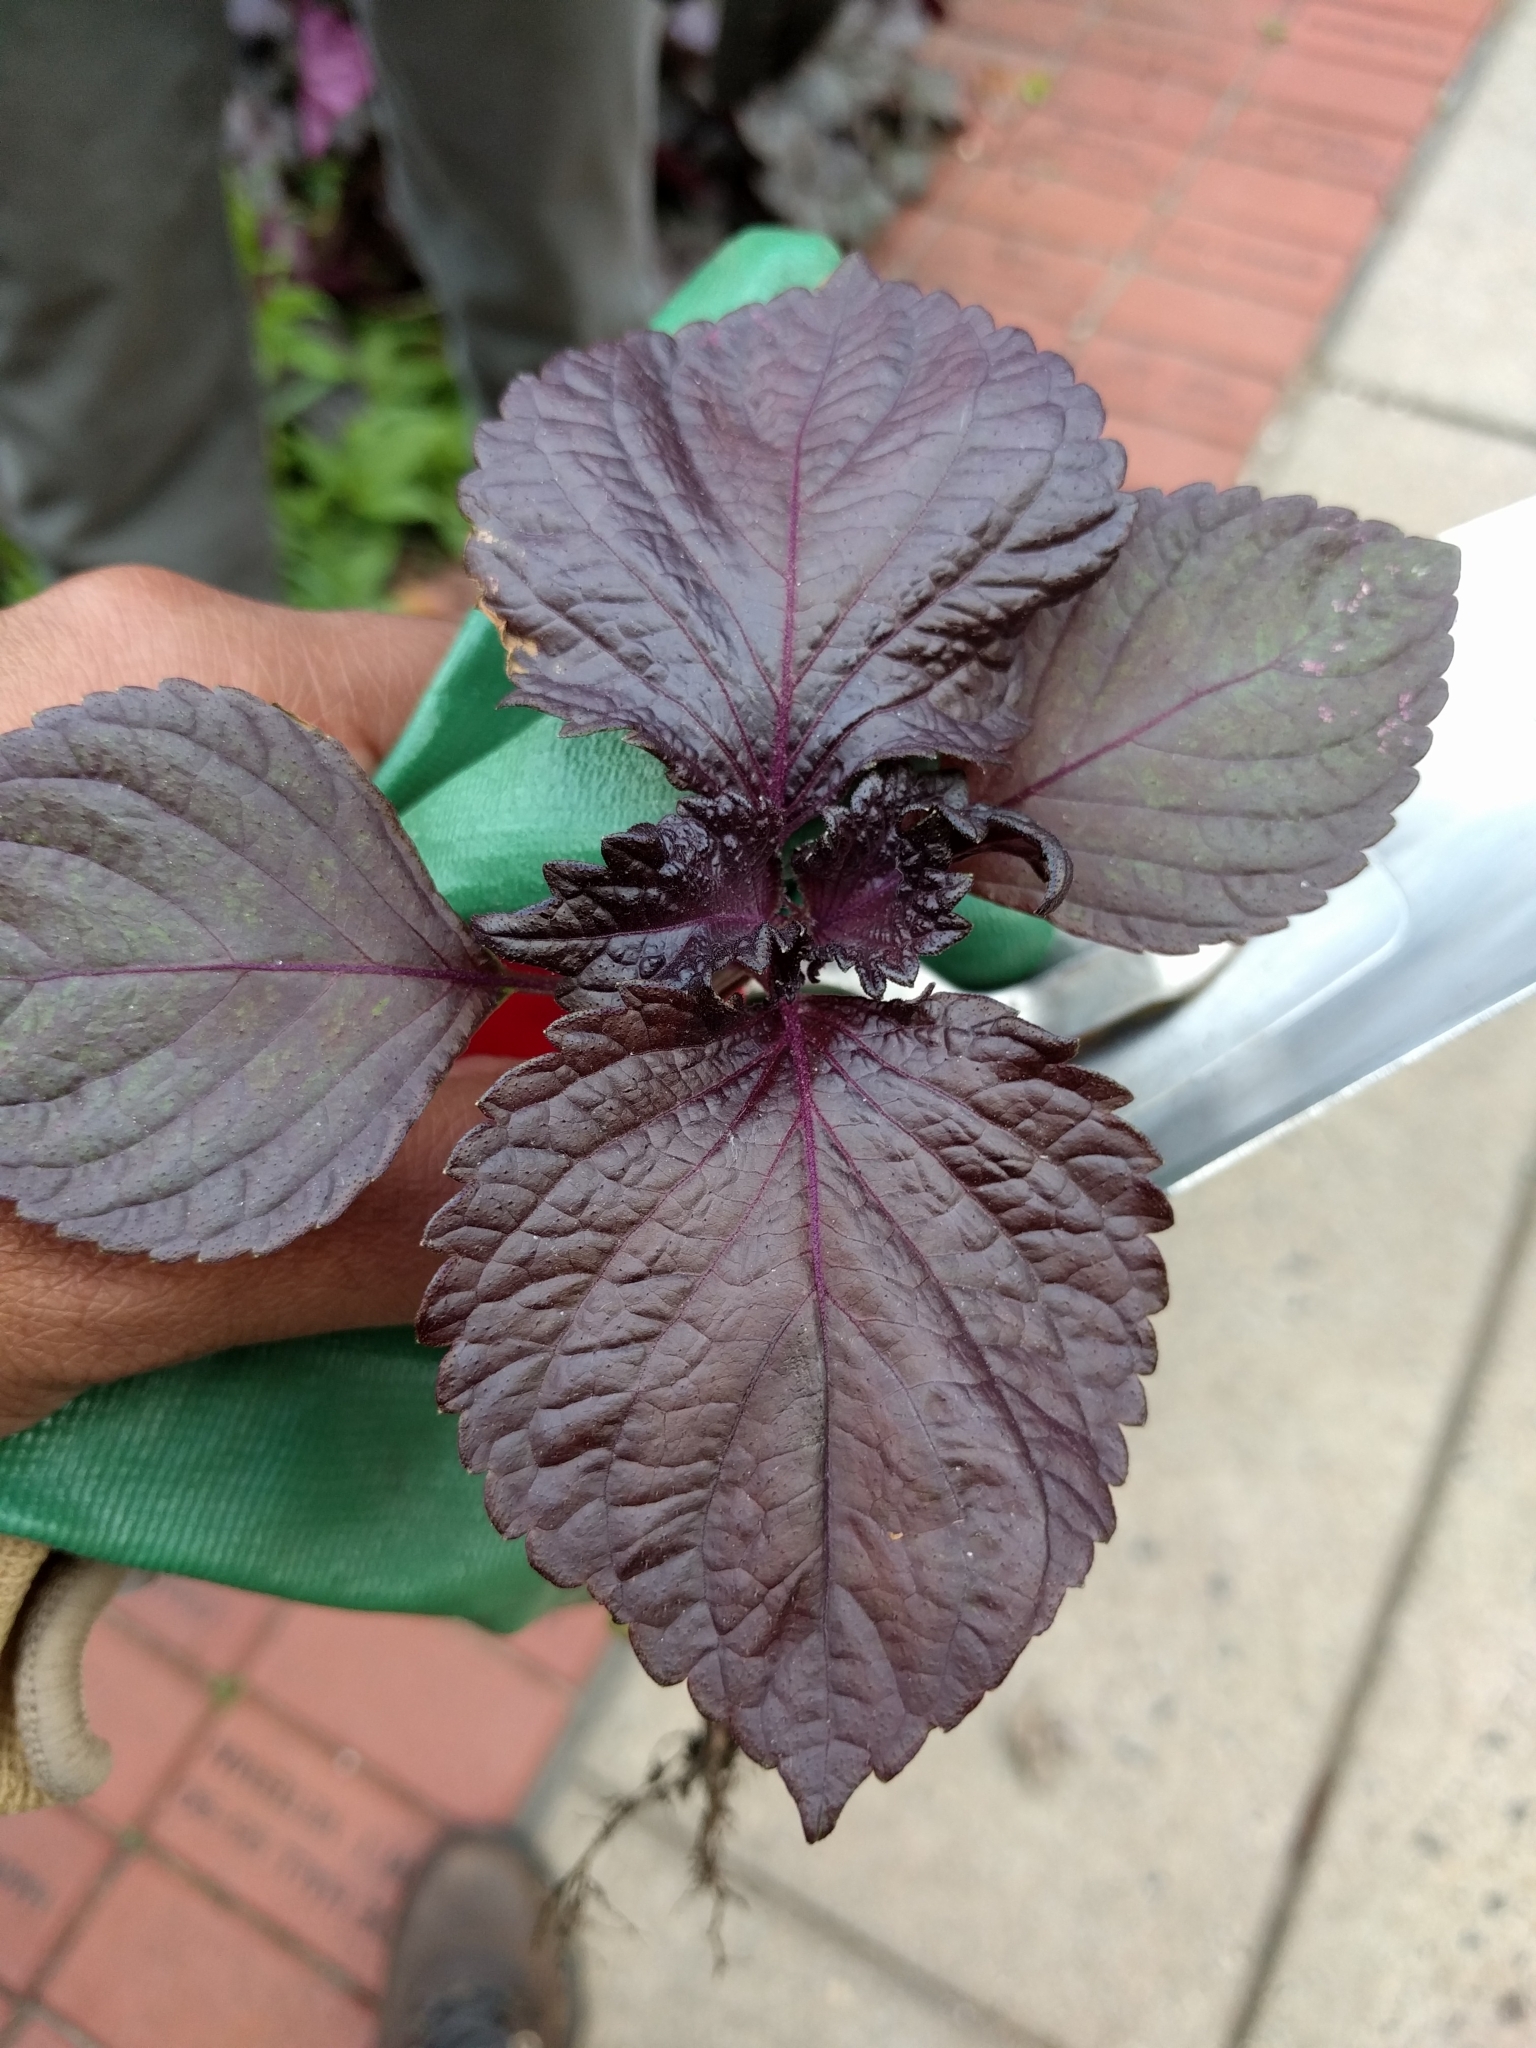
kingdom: Plantae
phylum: Tracheophyta
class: Magnoliopsida
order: Lamiales
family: Lamiaceae
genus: Perilla
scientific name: Perilla frutescens
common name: Perilla
